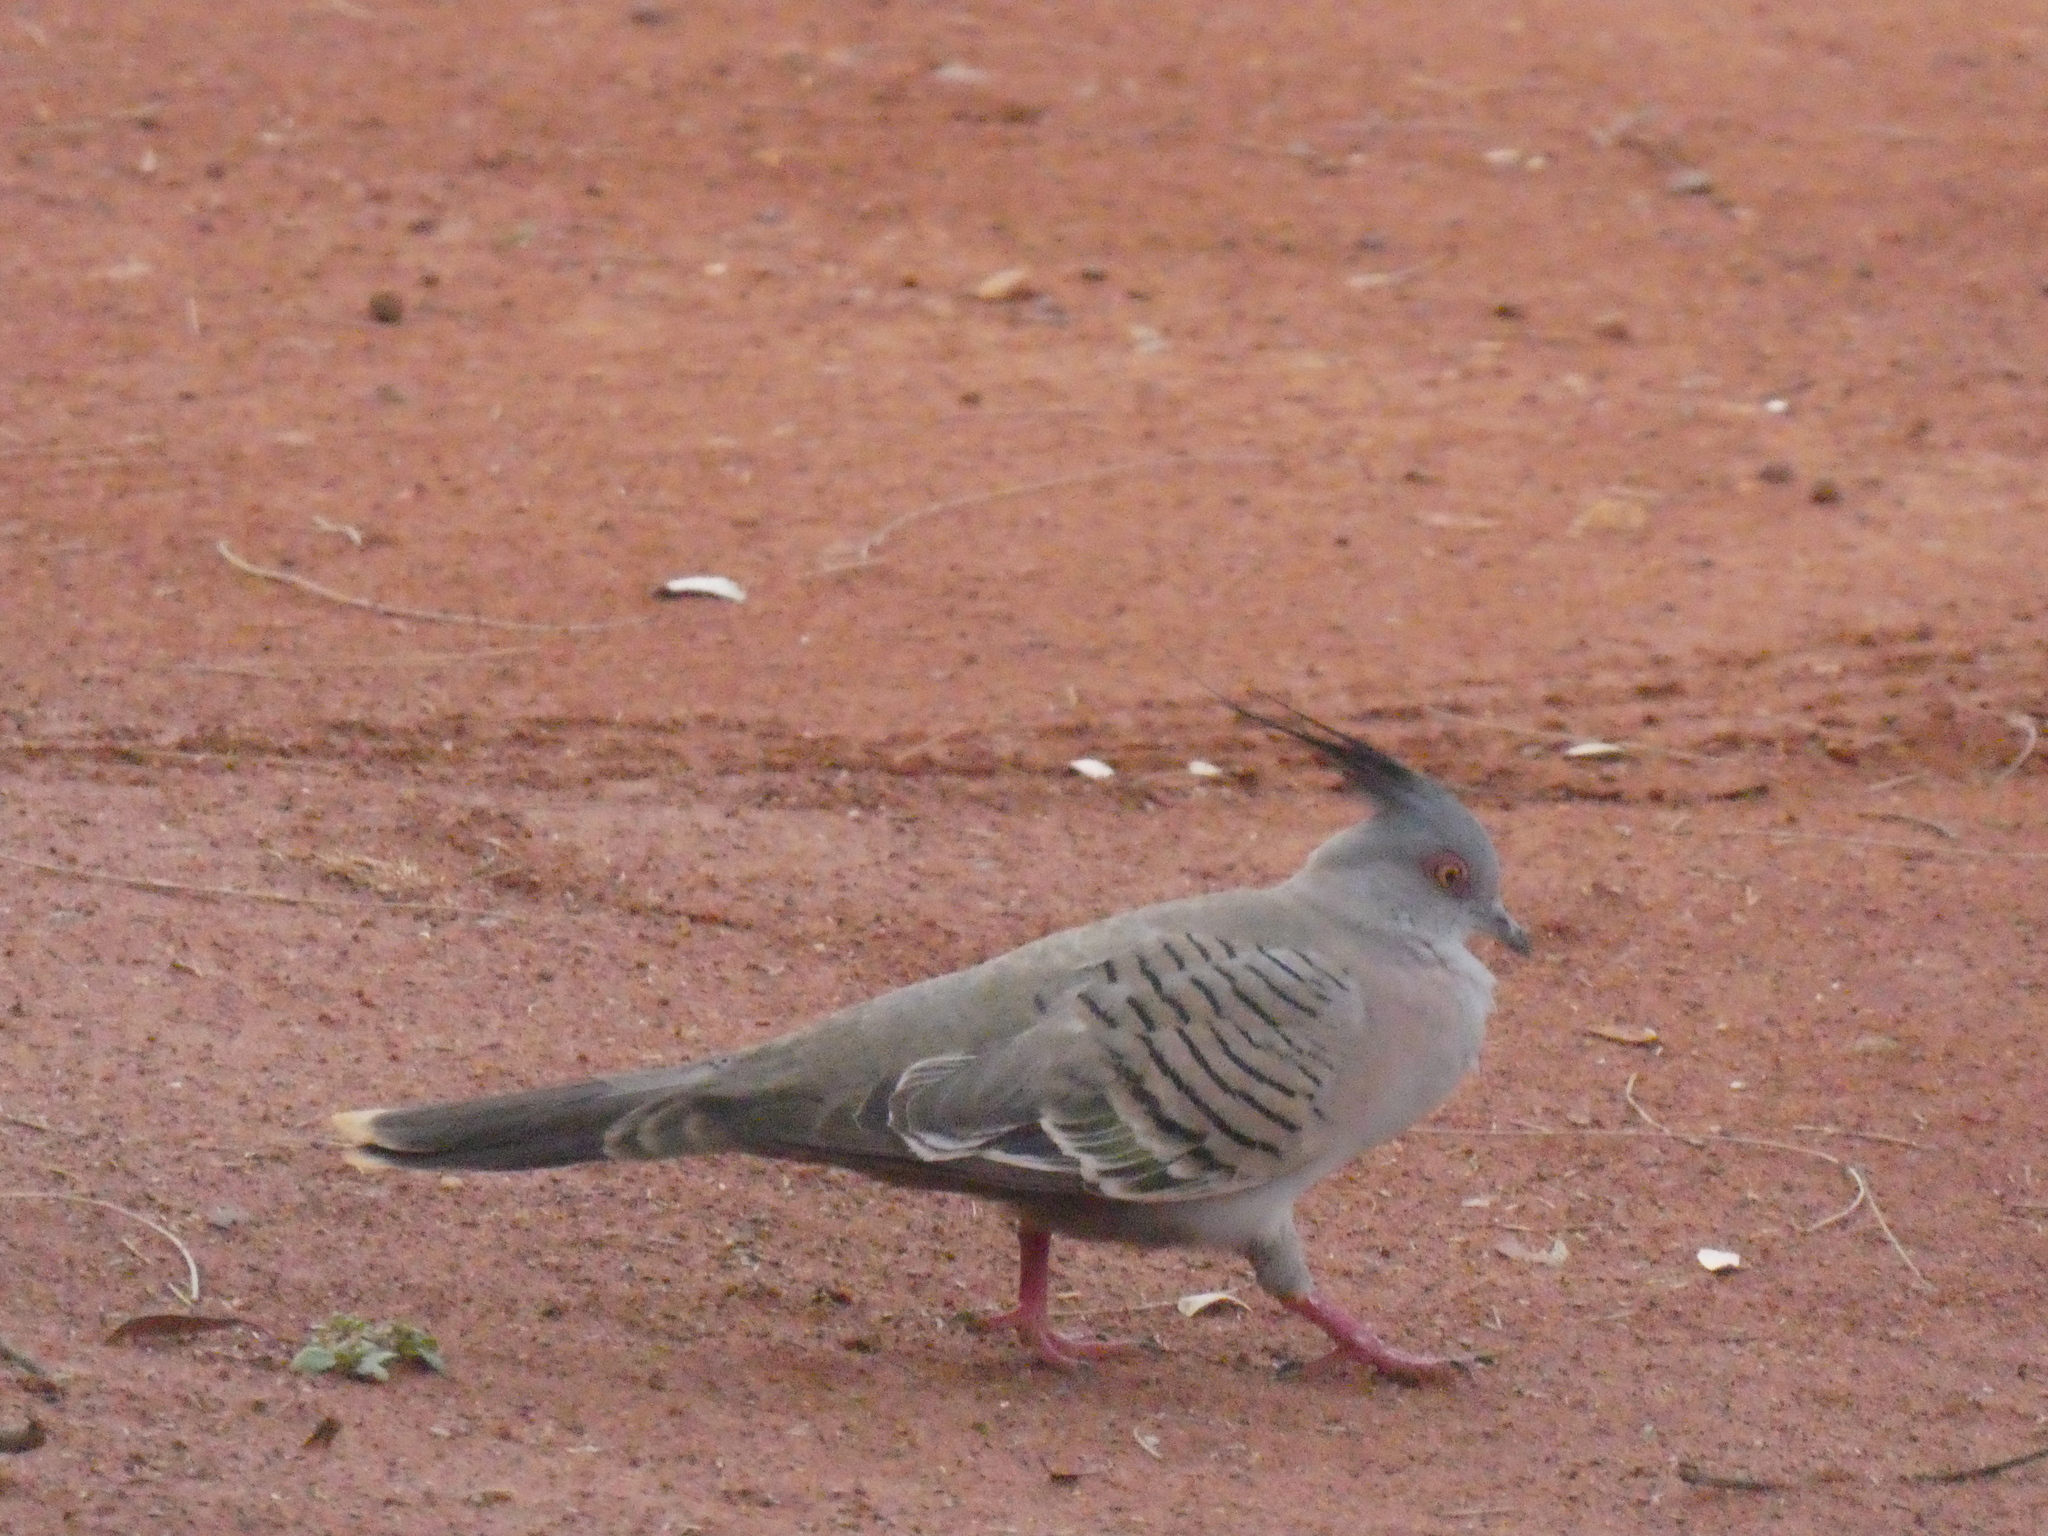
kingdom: Animalia
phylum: Chordata
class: Aves
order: Columbiformes
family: Columbidae
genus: Ocyphaps
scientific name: Ocyphaps lophotes
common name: Crested pigeon
